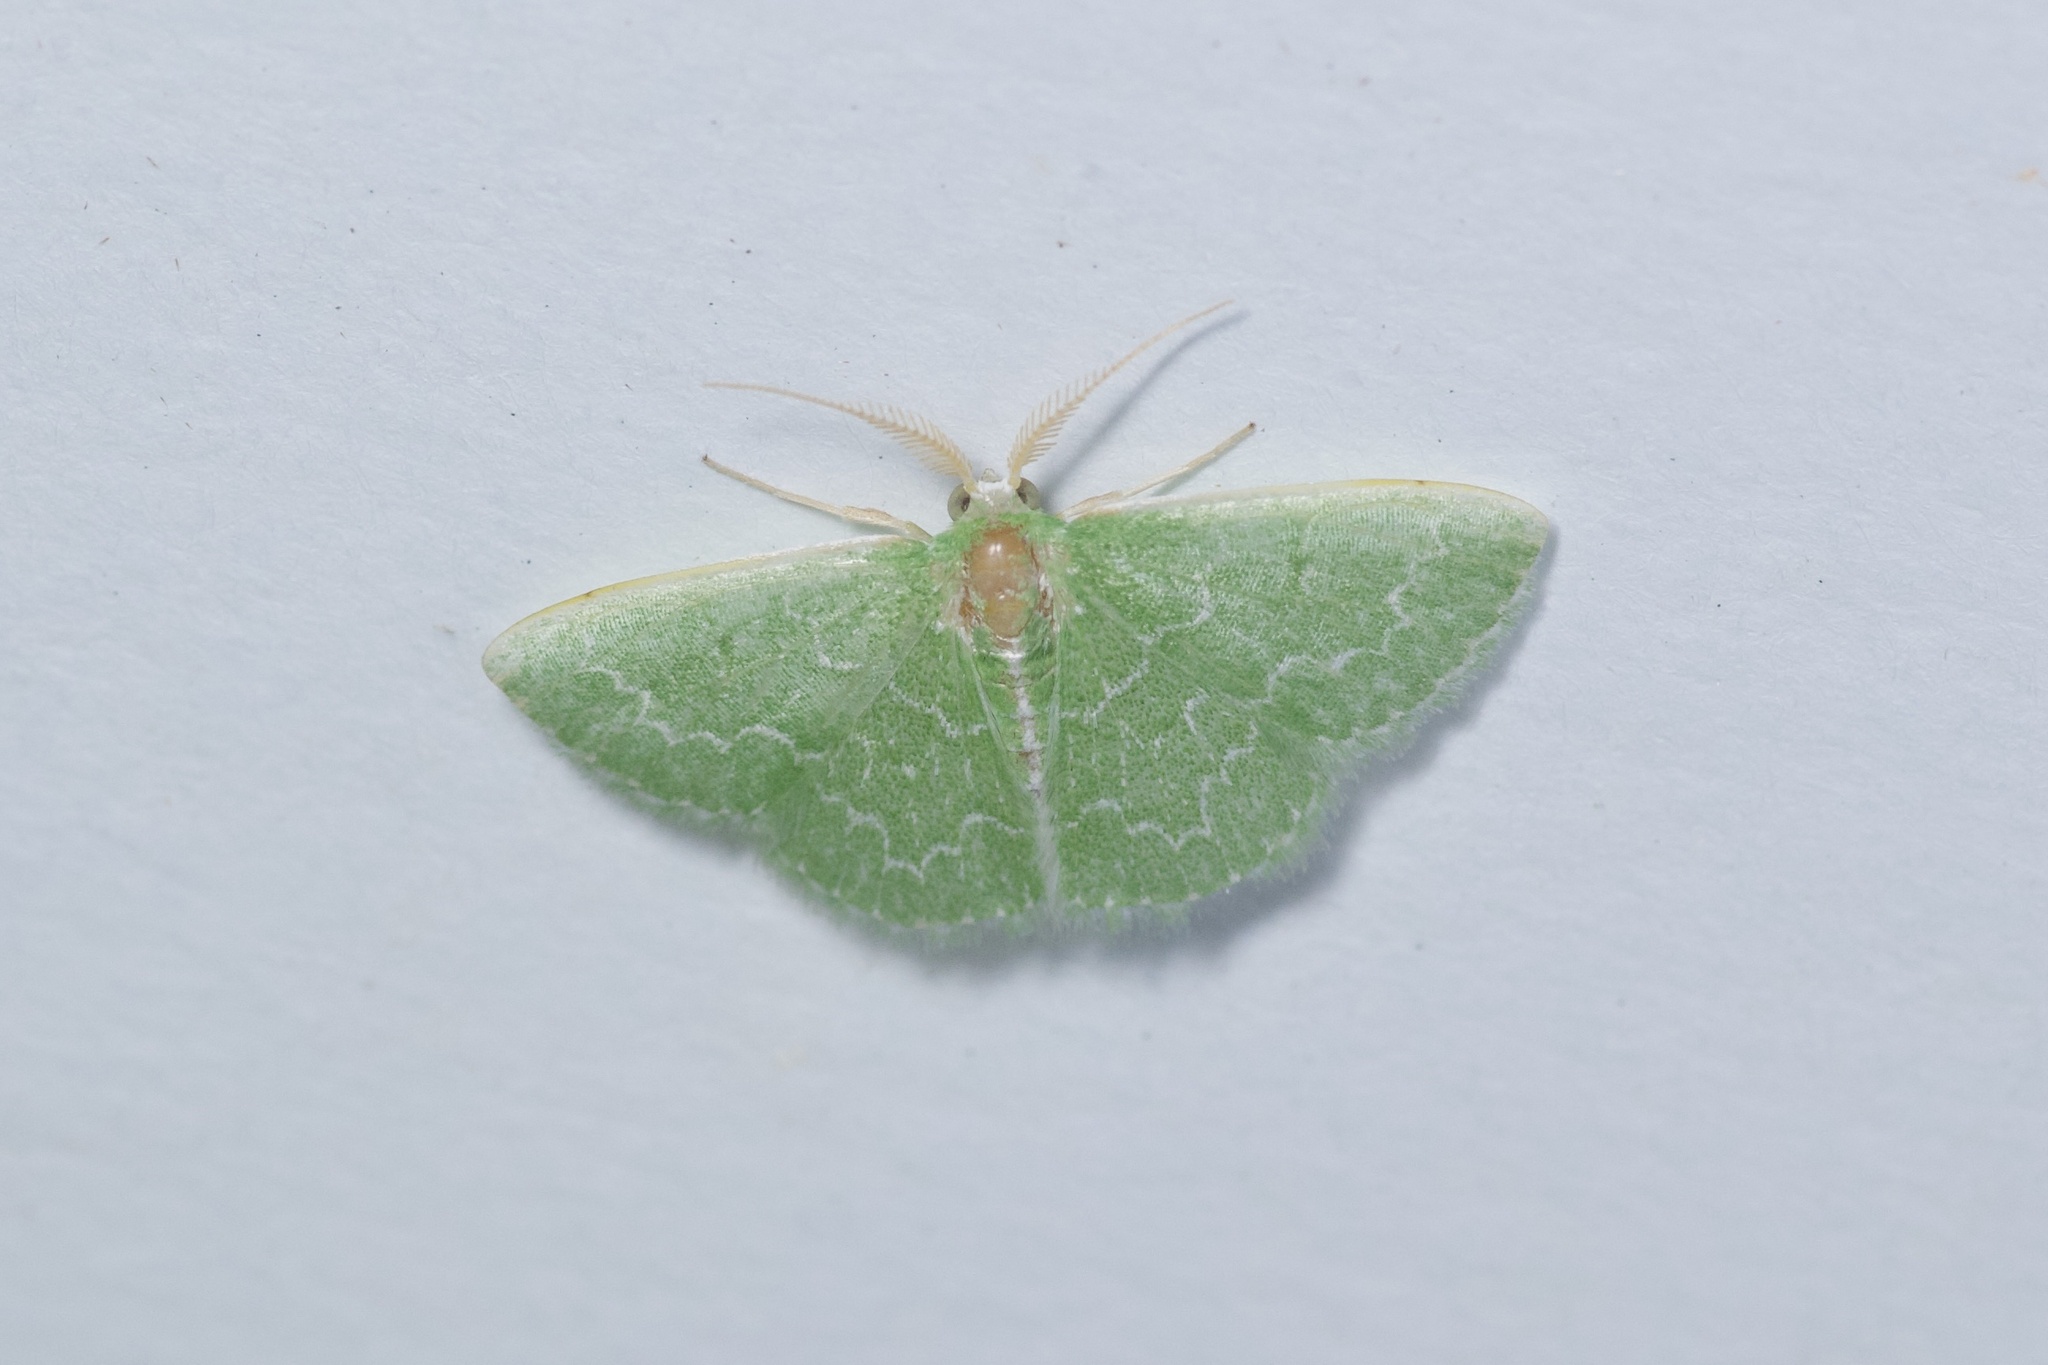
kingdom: Animalia
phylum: Arthropoda
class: Insecta
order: Lepidoptera
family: Geometridae
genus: Synchlora
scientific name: Synchlora frondaria
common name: Southern emerald
